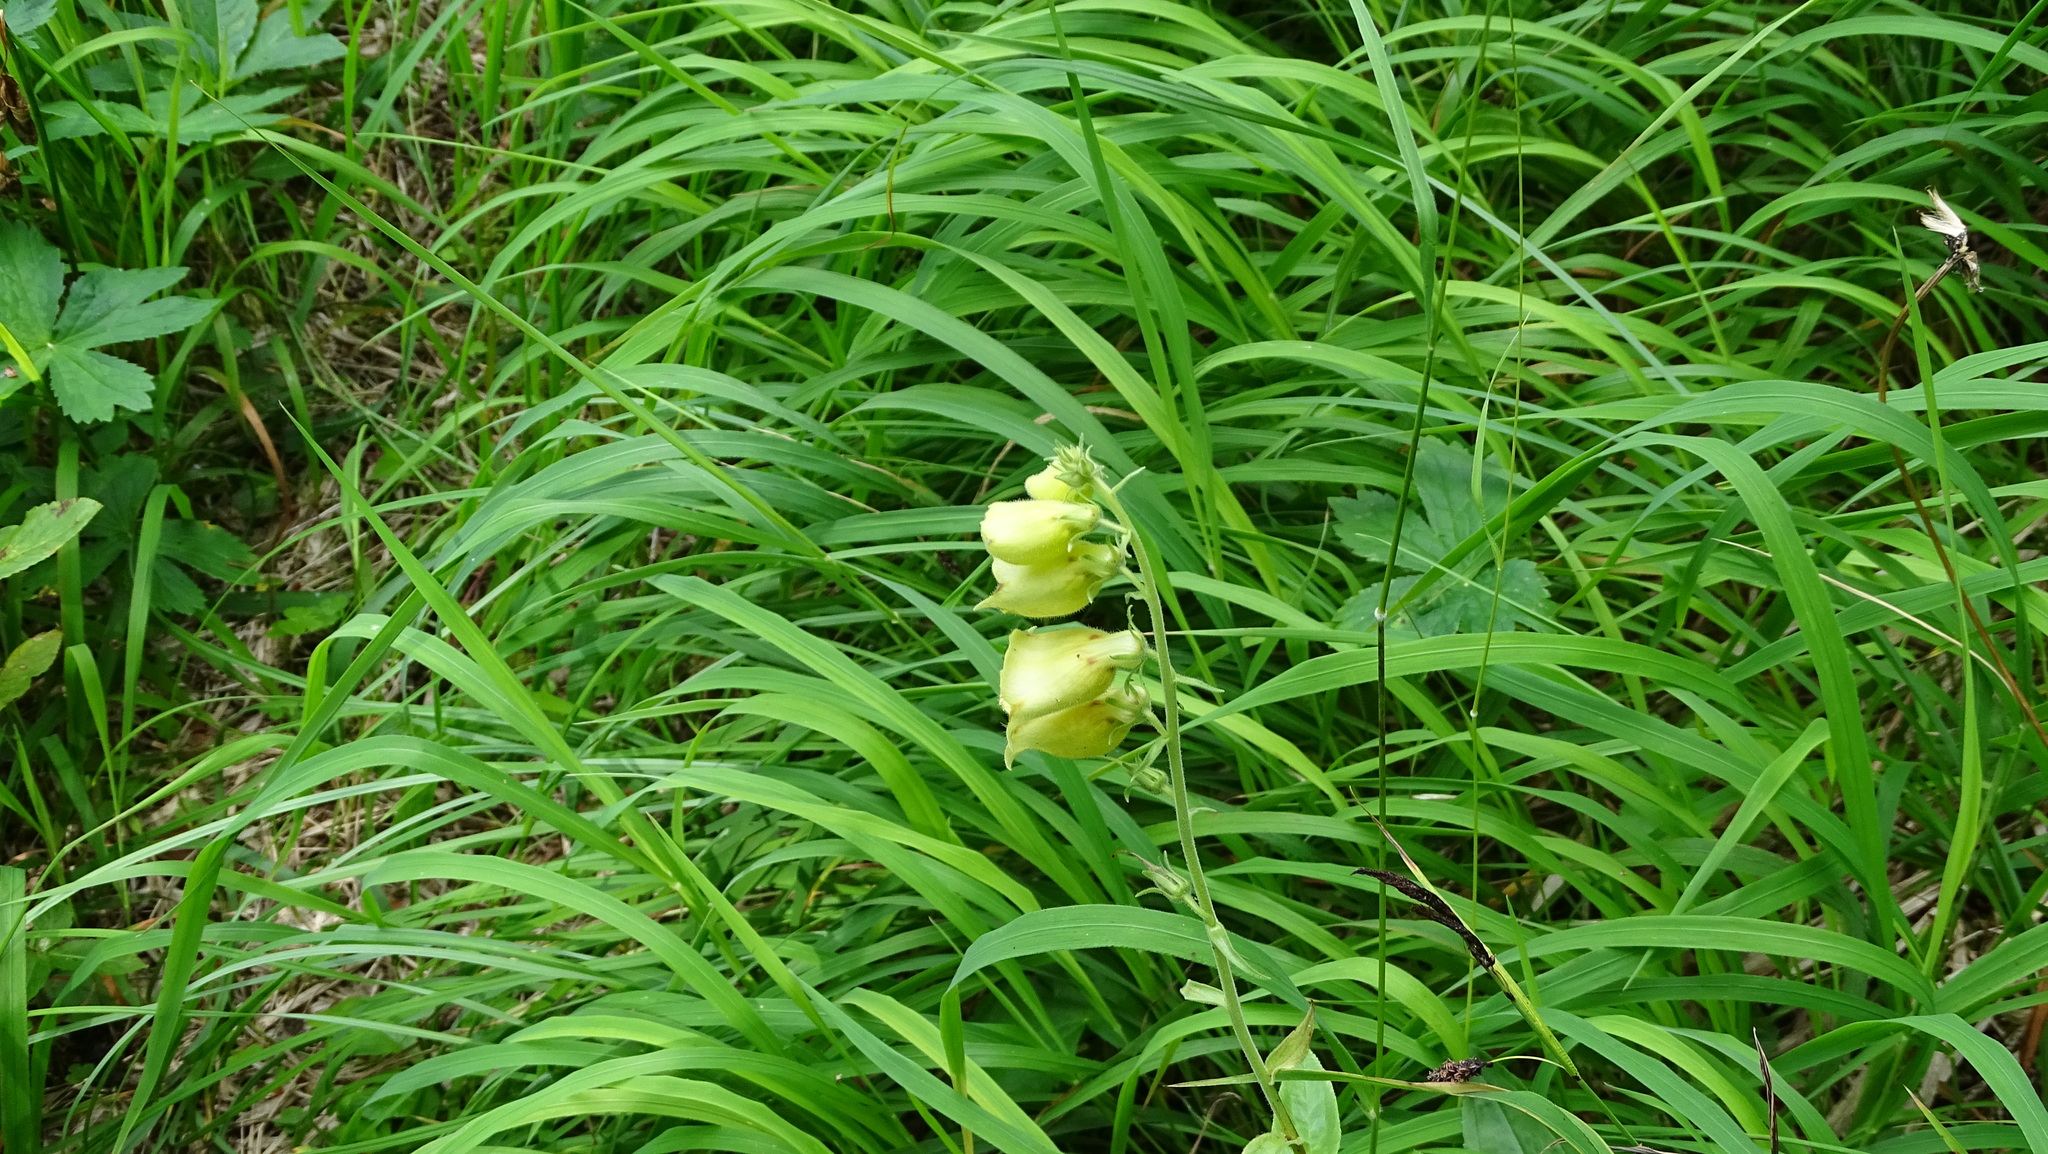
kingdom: Plantae
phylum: Tracheophyta
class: Magnoliopsida
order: Lamiales
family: Plantaginaceae
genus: Digitalis
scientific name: Digitalis grandiflora
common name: Yellow foxglove
